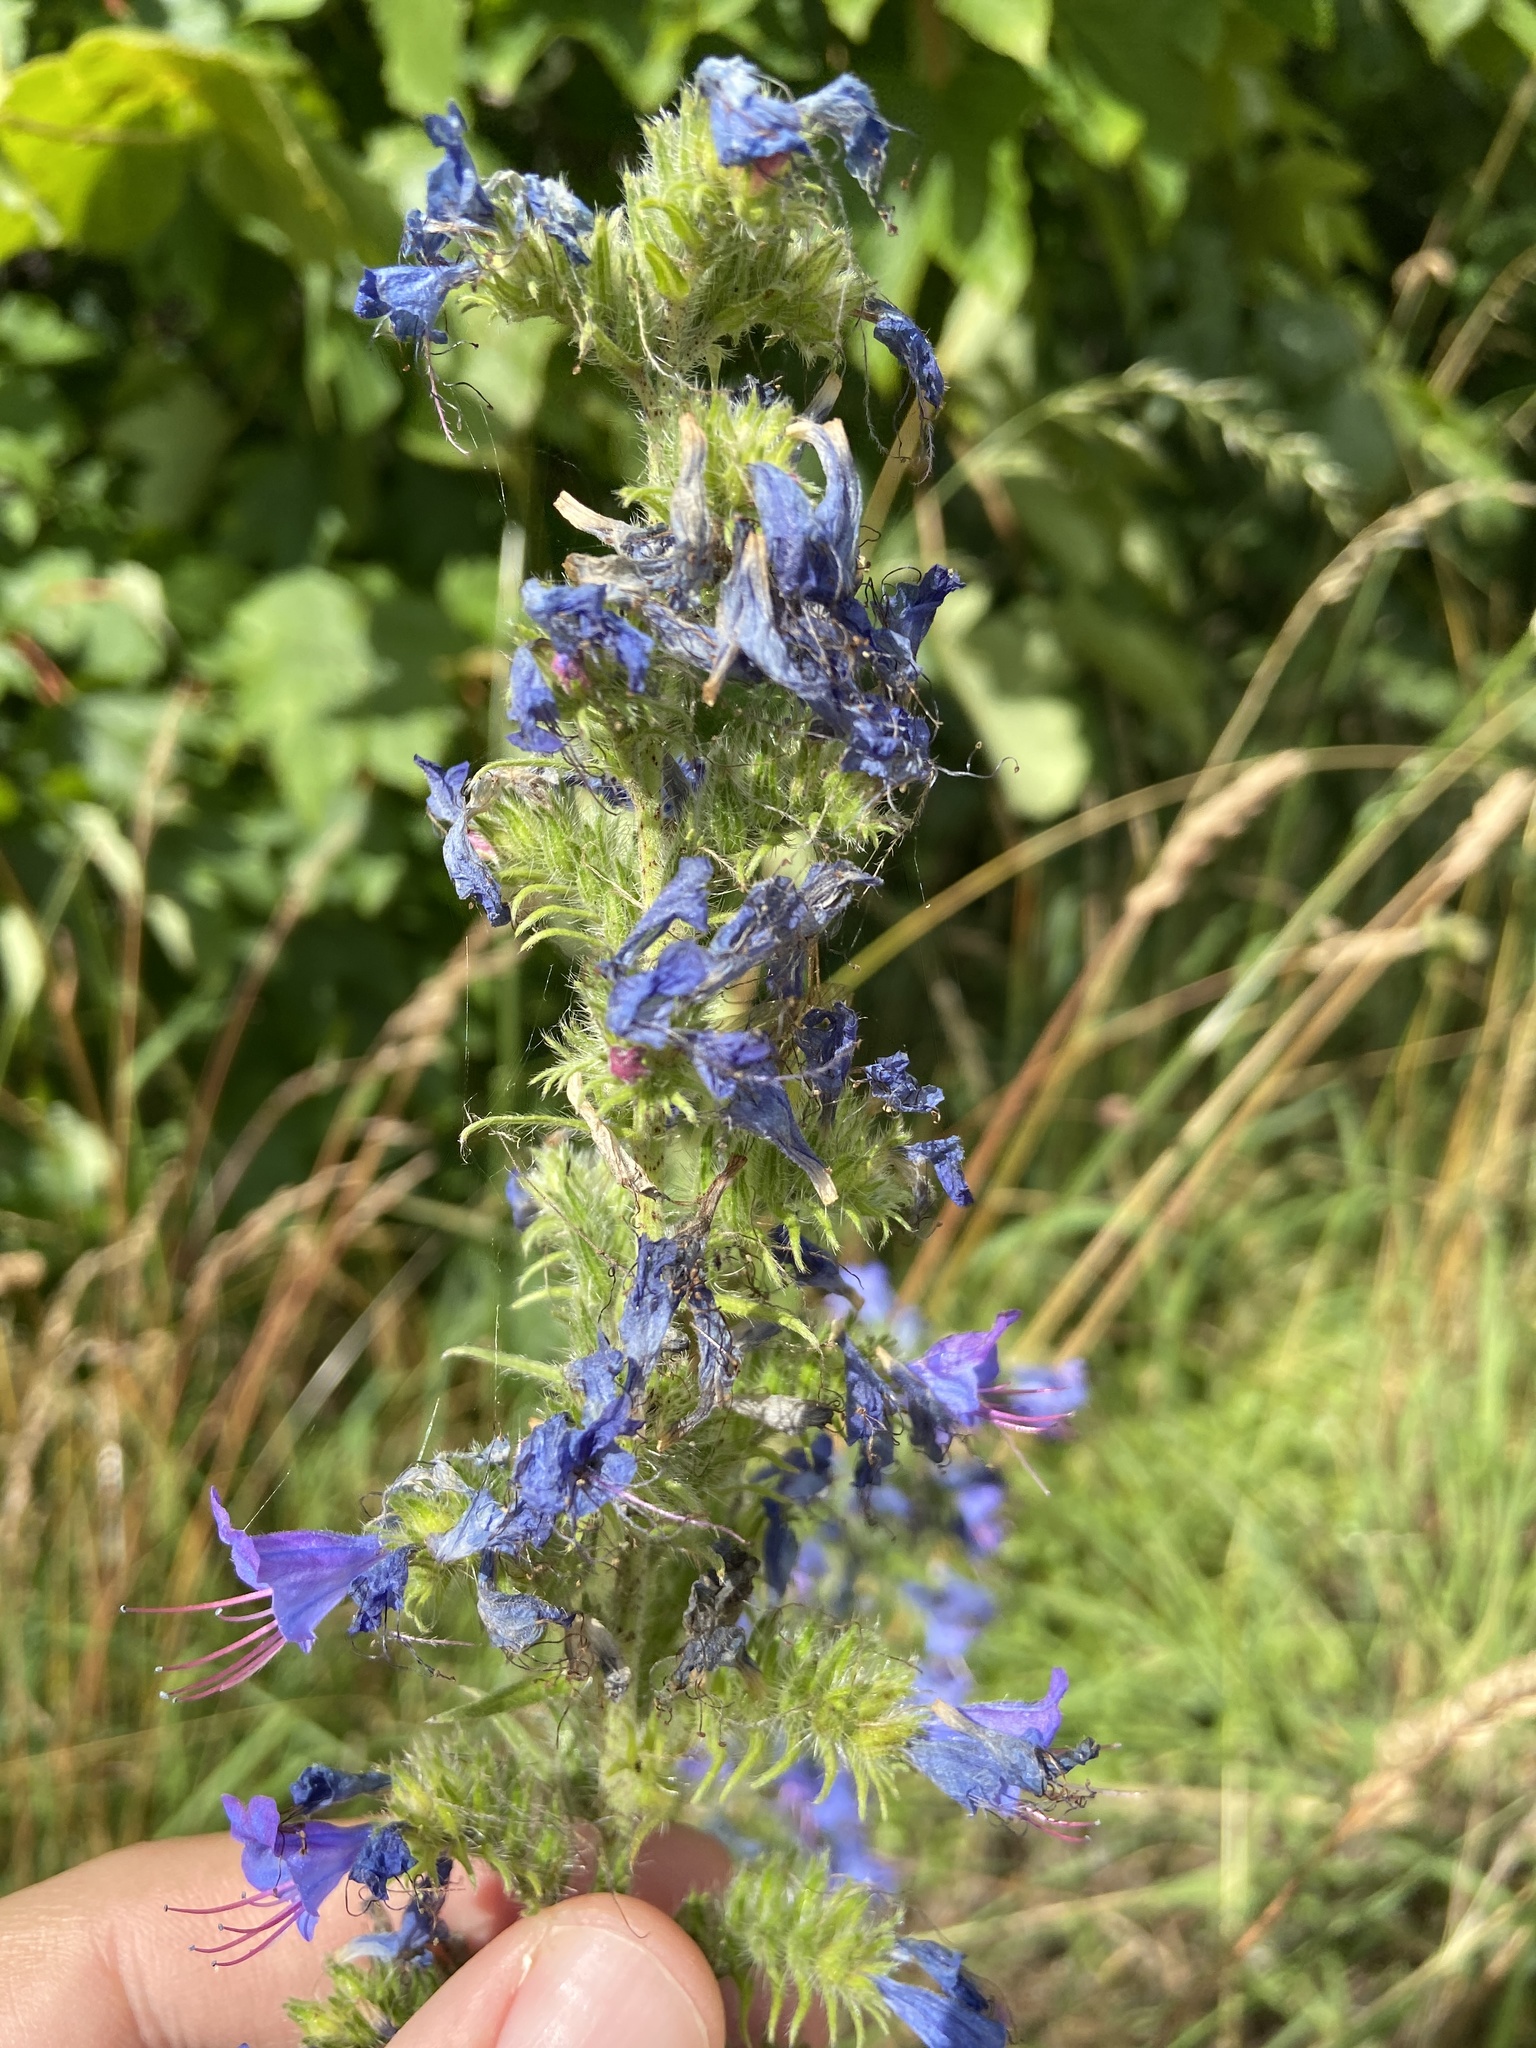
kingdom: Plantae
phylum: Tracheophyta
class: Magnoliopsida
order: Boraginales
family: Boraginaceae
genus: Echium
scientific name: Echium vulgare
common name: Common viper's bugloss
